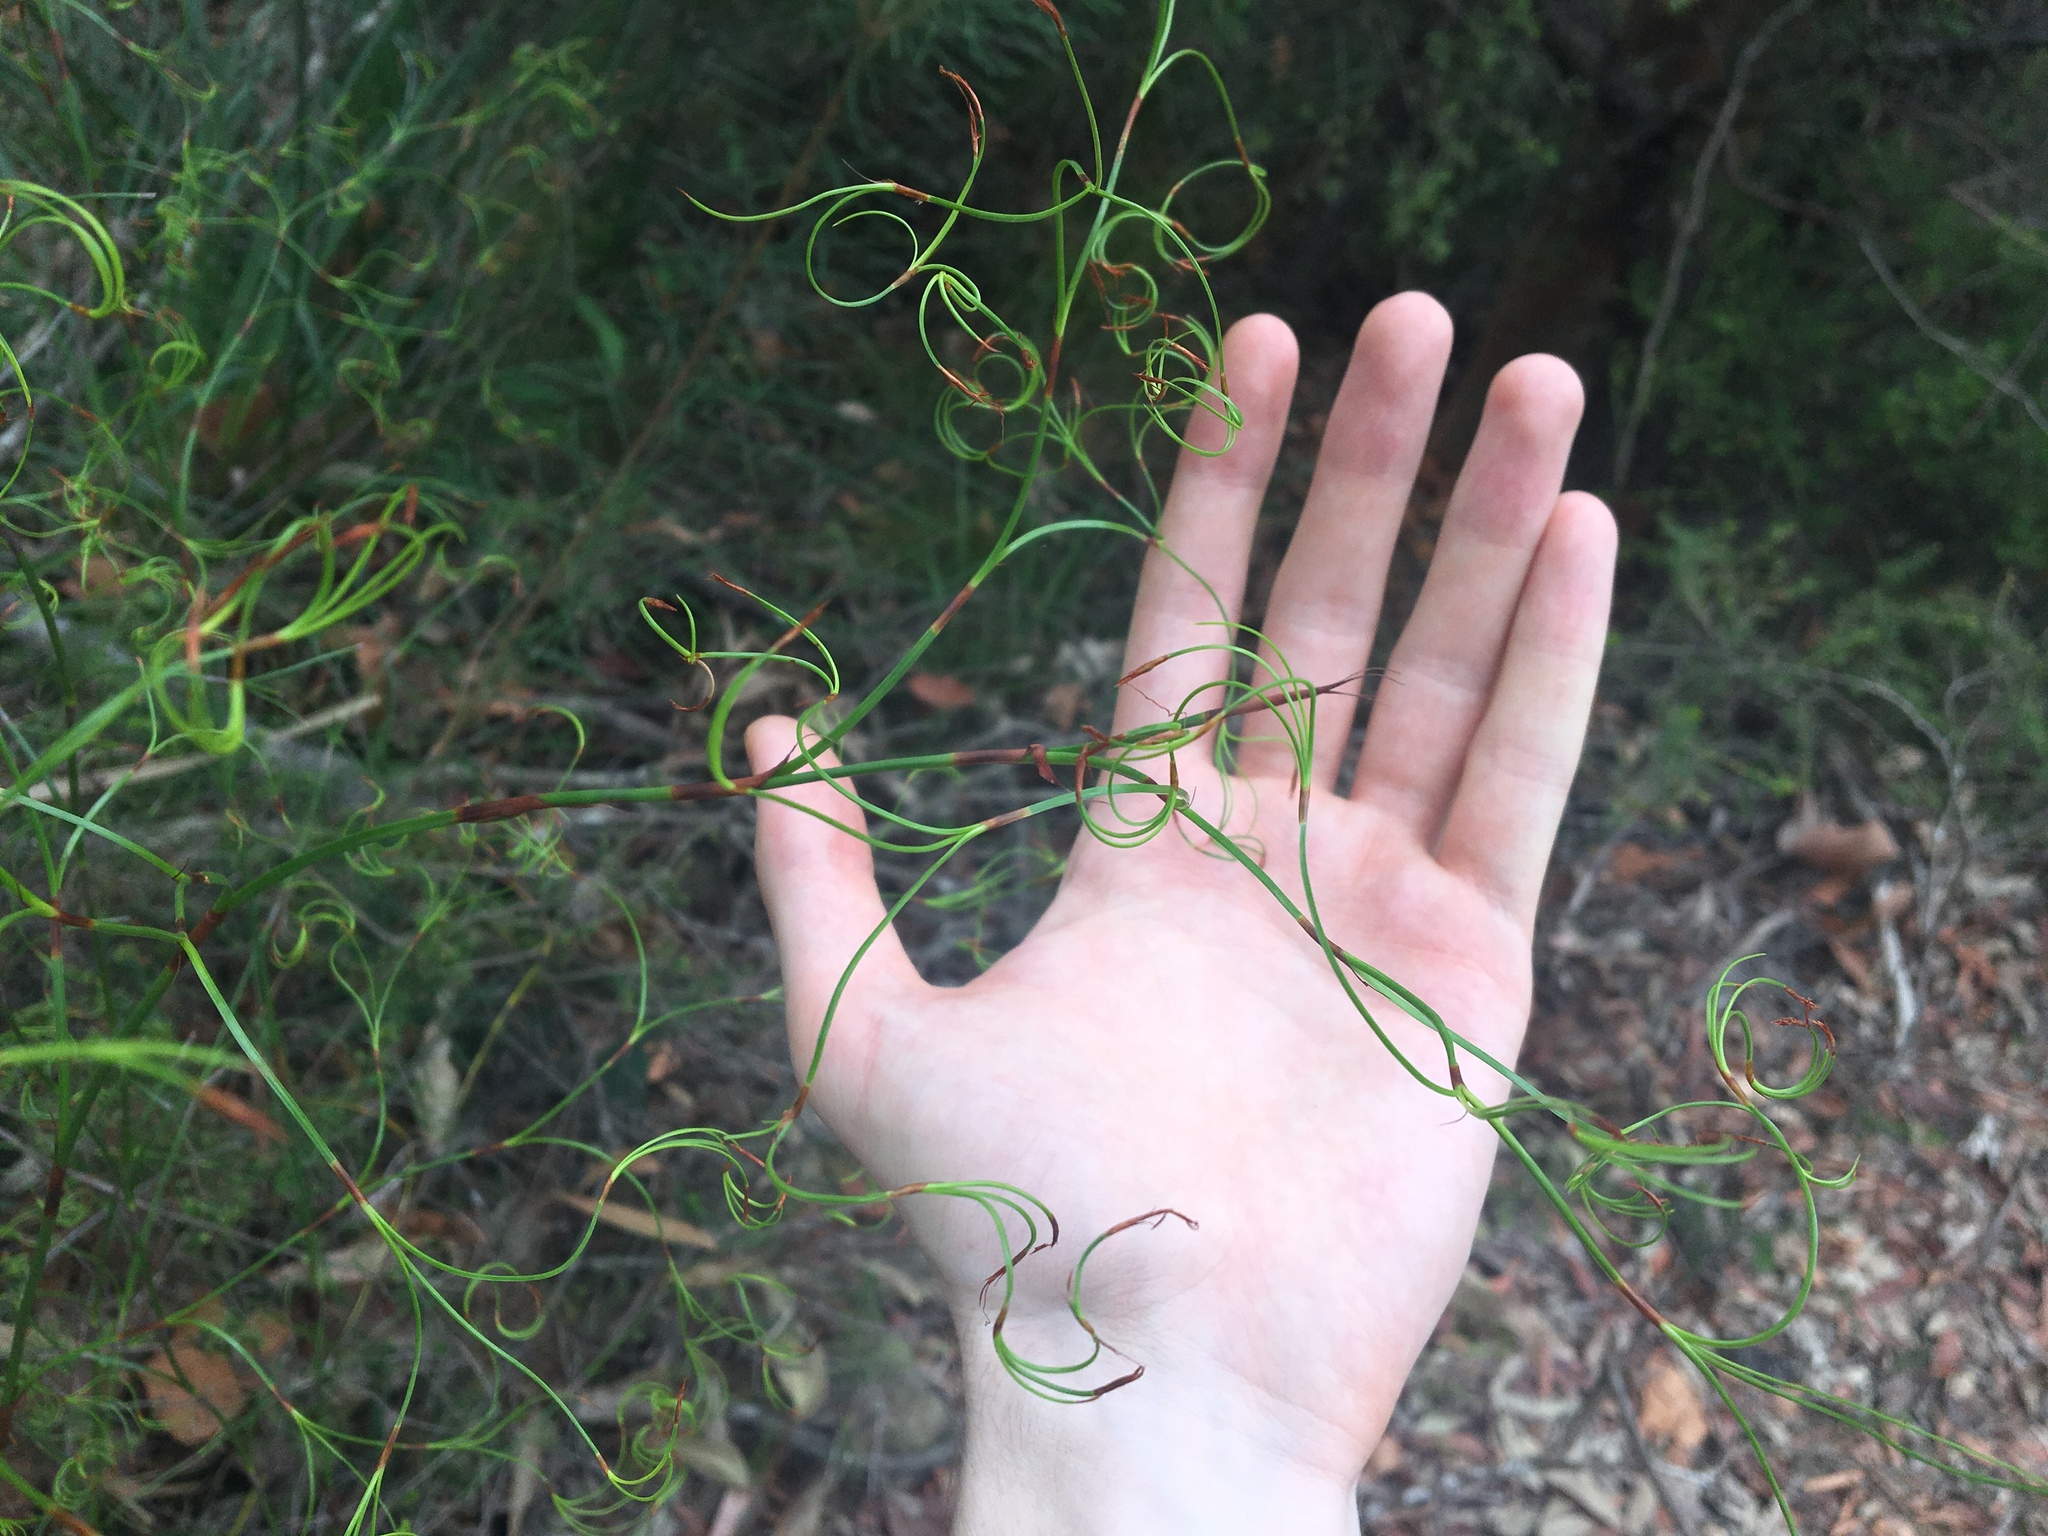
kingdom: Plantae
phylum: Tracheophyta
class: Liliopsida
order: Poales
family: Cyperaceae
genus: Caustis
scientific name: Caustis flexuosa
